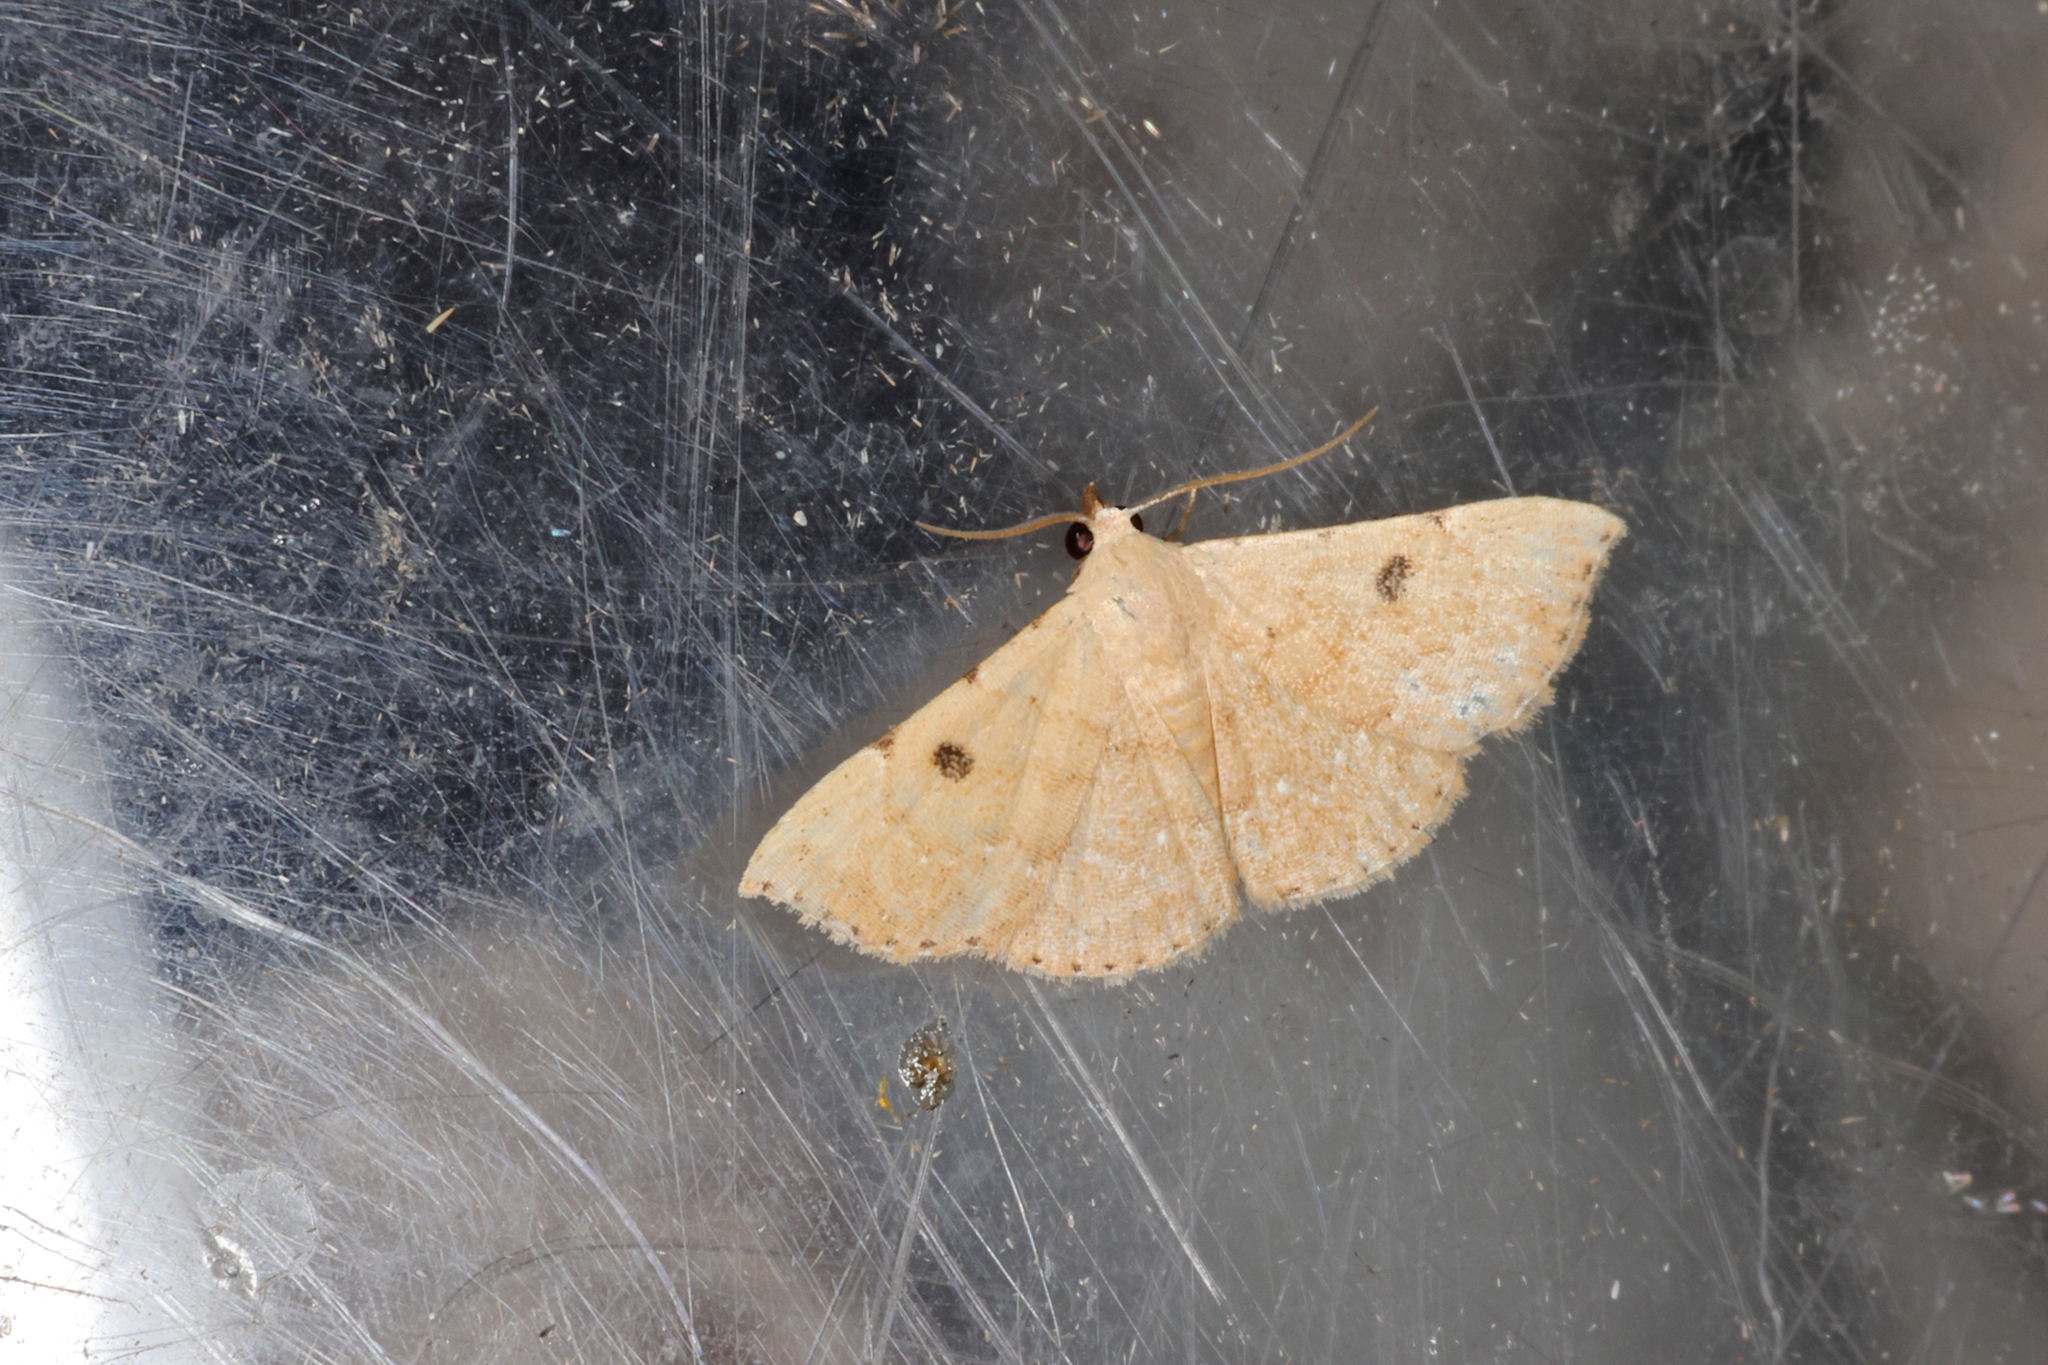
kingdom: Animalia
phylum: Arthropoda
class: Insecta
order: Lepidoptera
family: Erebidae
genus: Corgatha
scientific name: Corgatha trichogyia
